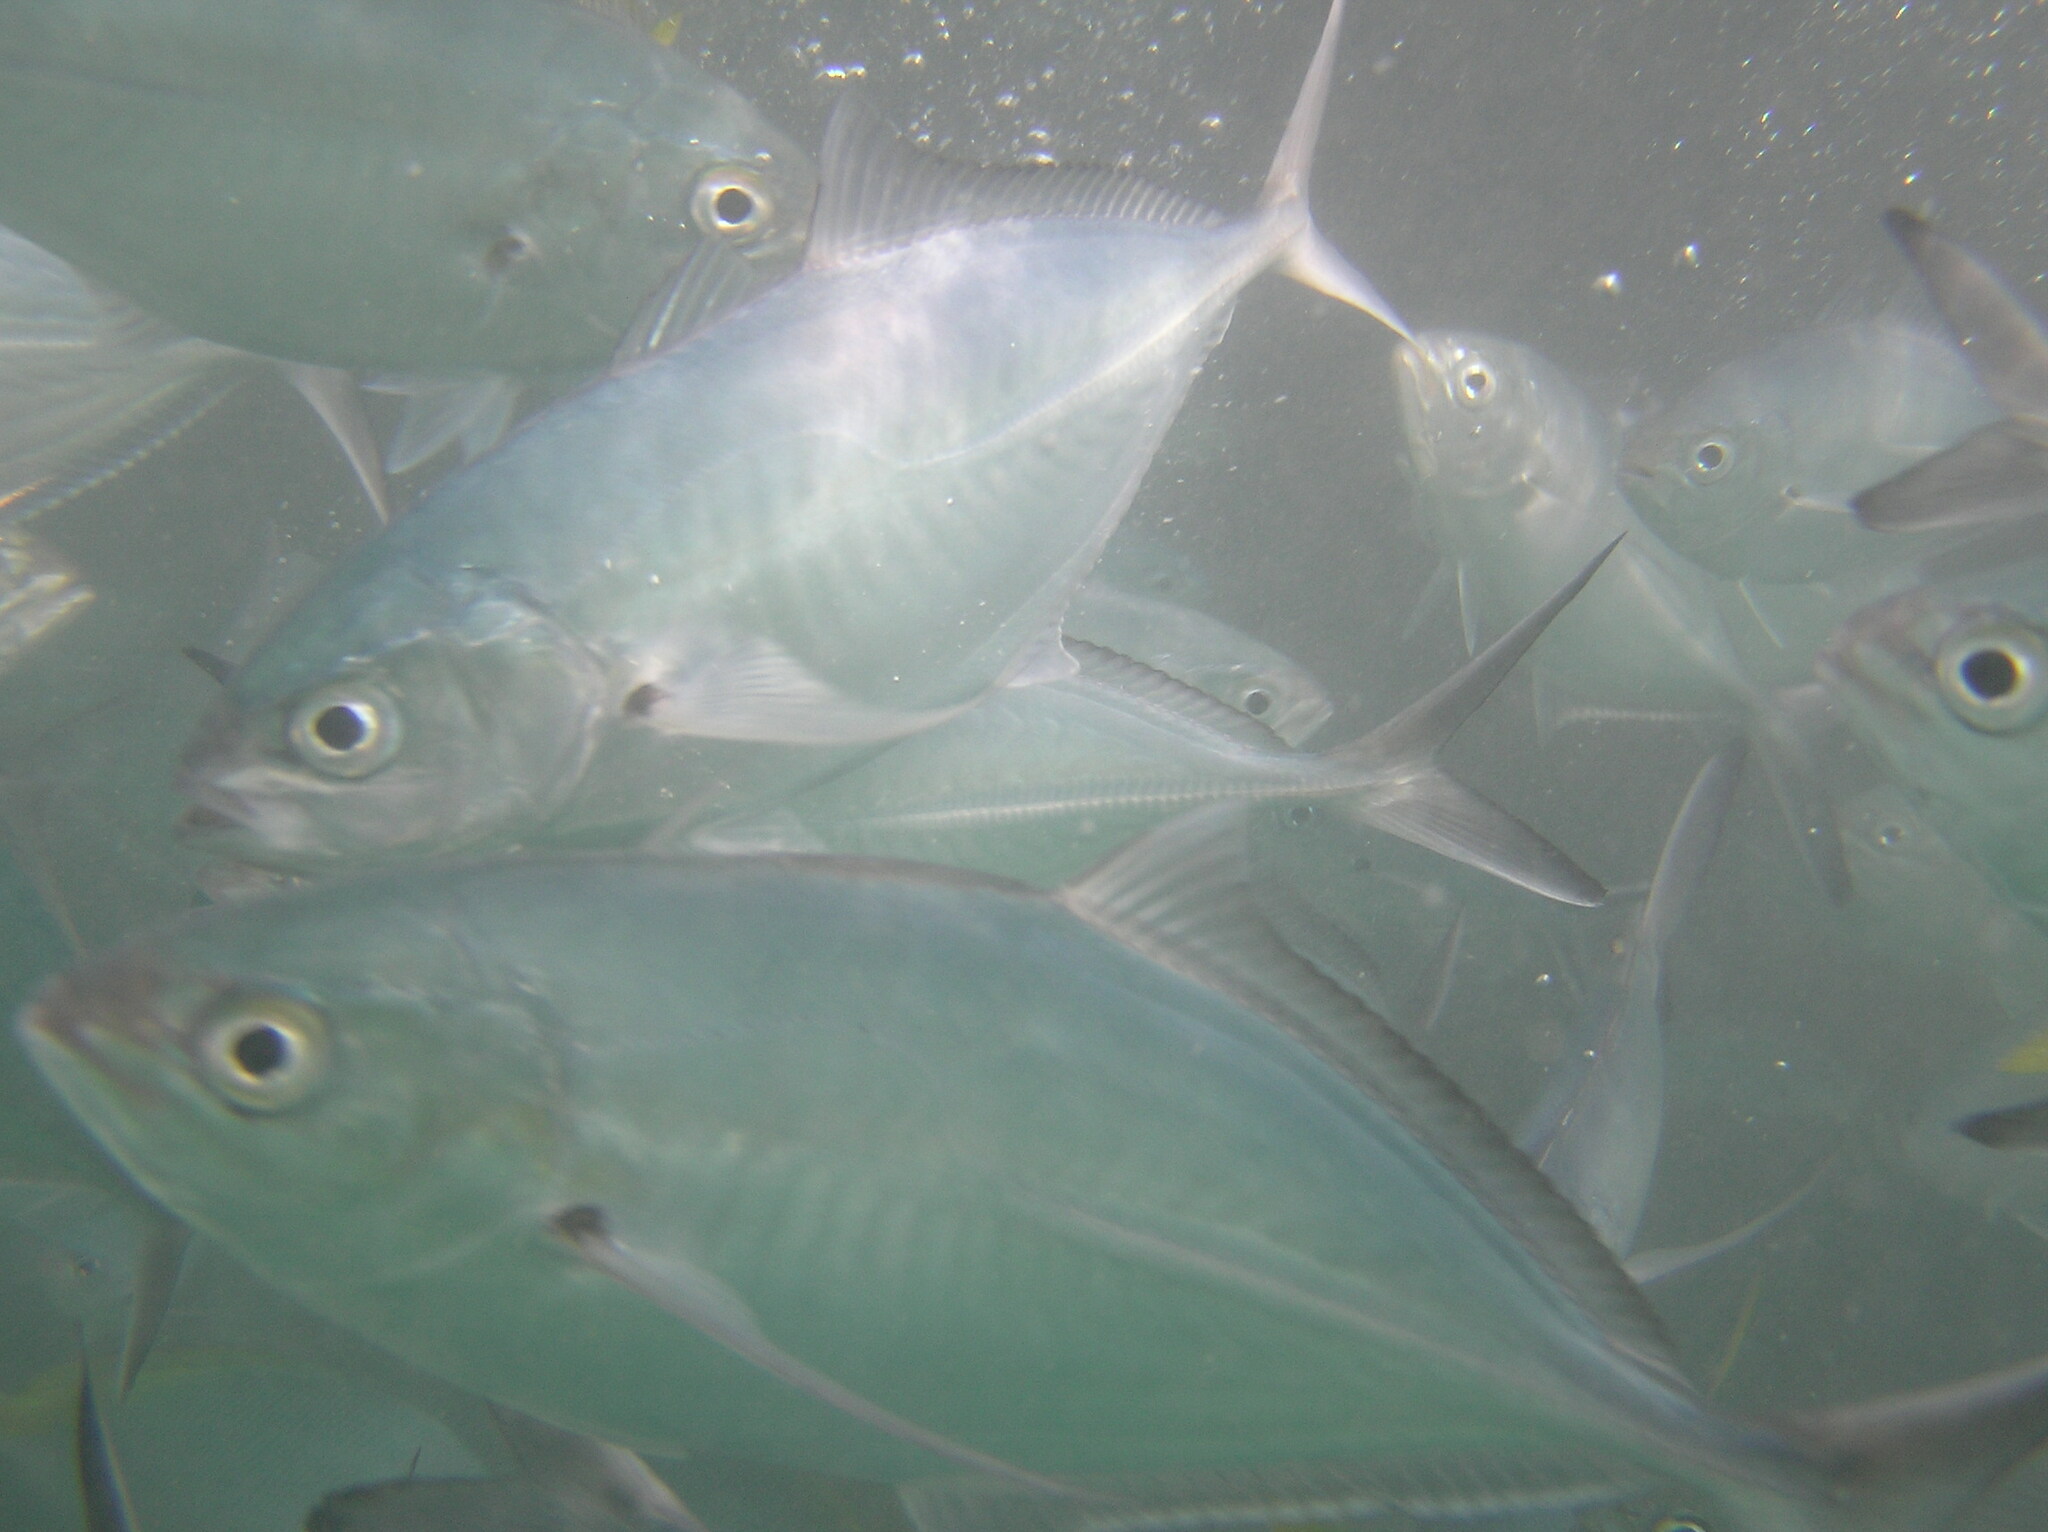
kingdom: Animalia
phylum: Chordata
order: Perciformes
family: Carangidae
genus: Alepes
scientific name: Alepes vari
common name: Herring scad
